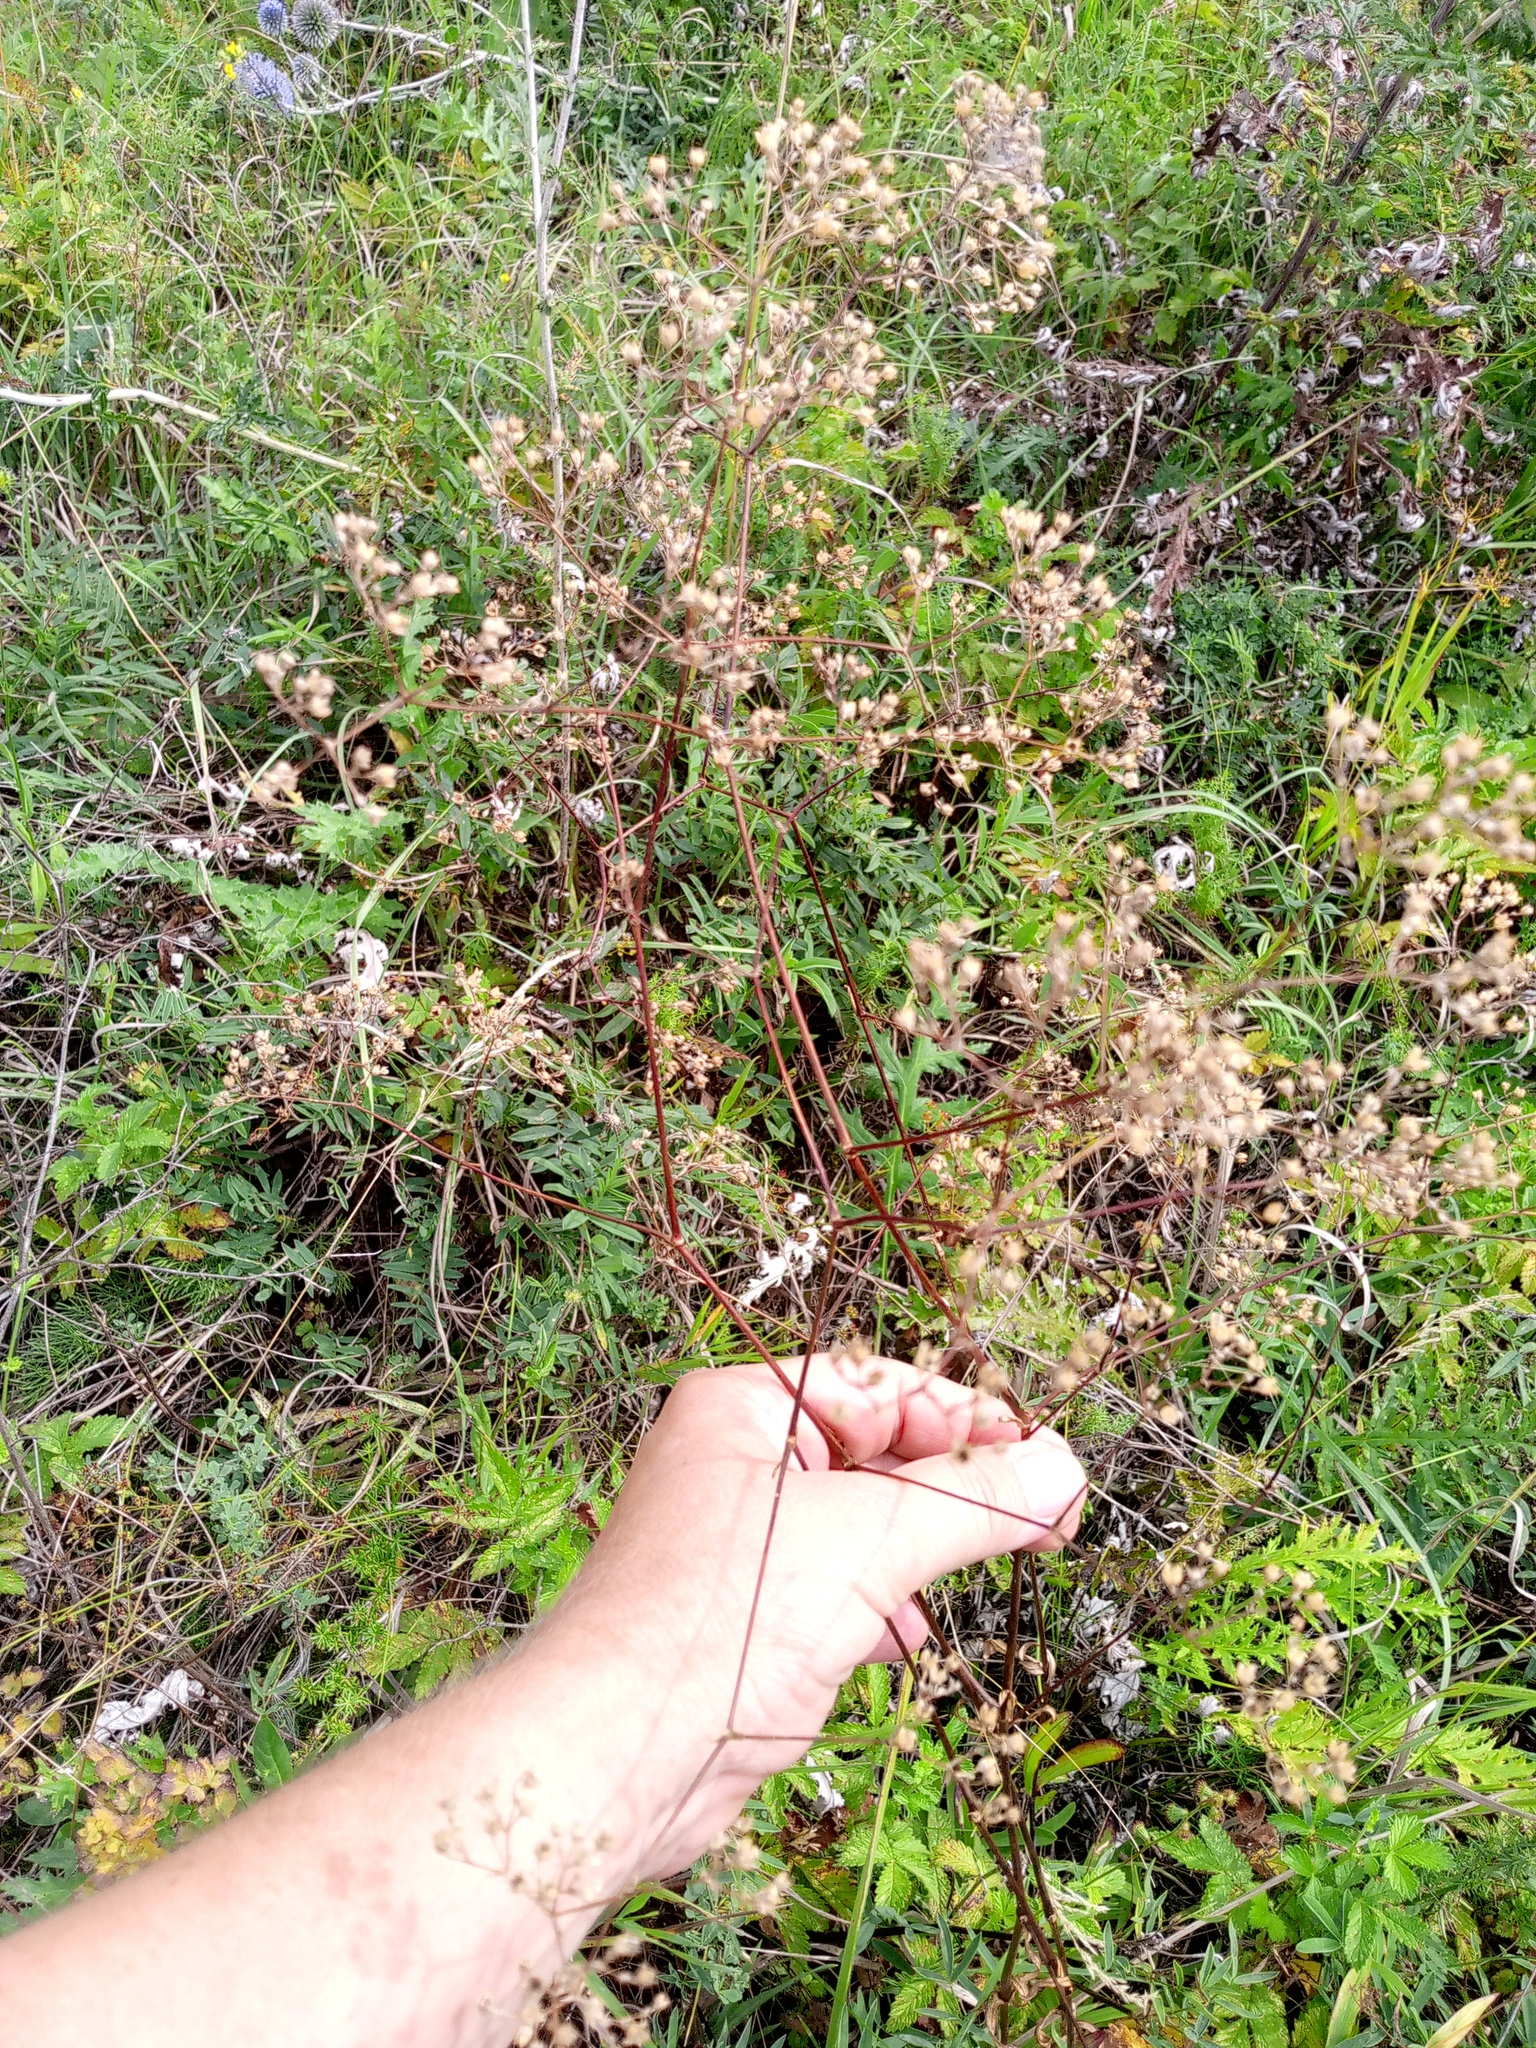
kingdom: Plantae
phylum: Tracheophyta
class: Magnoliopsida
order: Caryophyllales
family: Caryophyllaceae
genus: Gypsophila
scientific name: Gypsophila altissima
